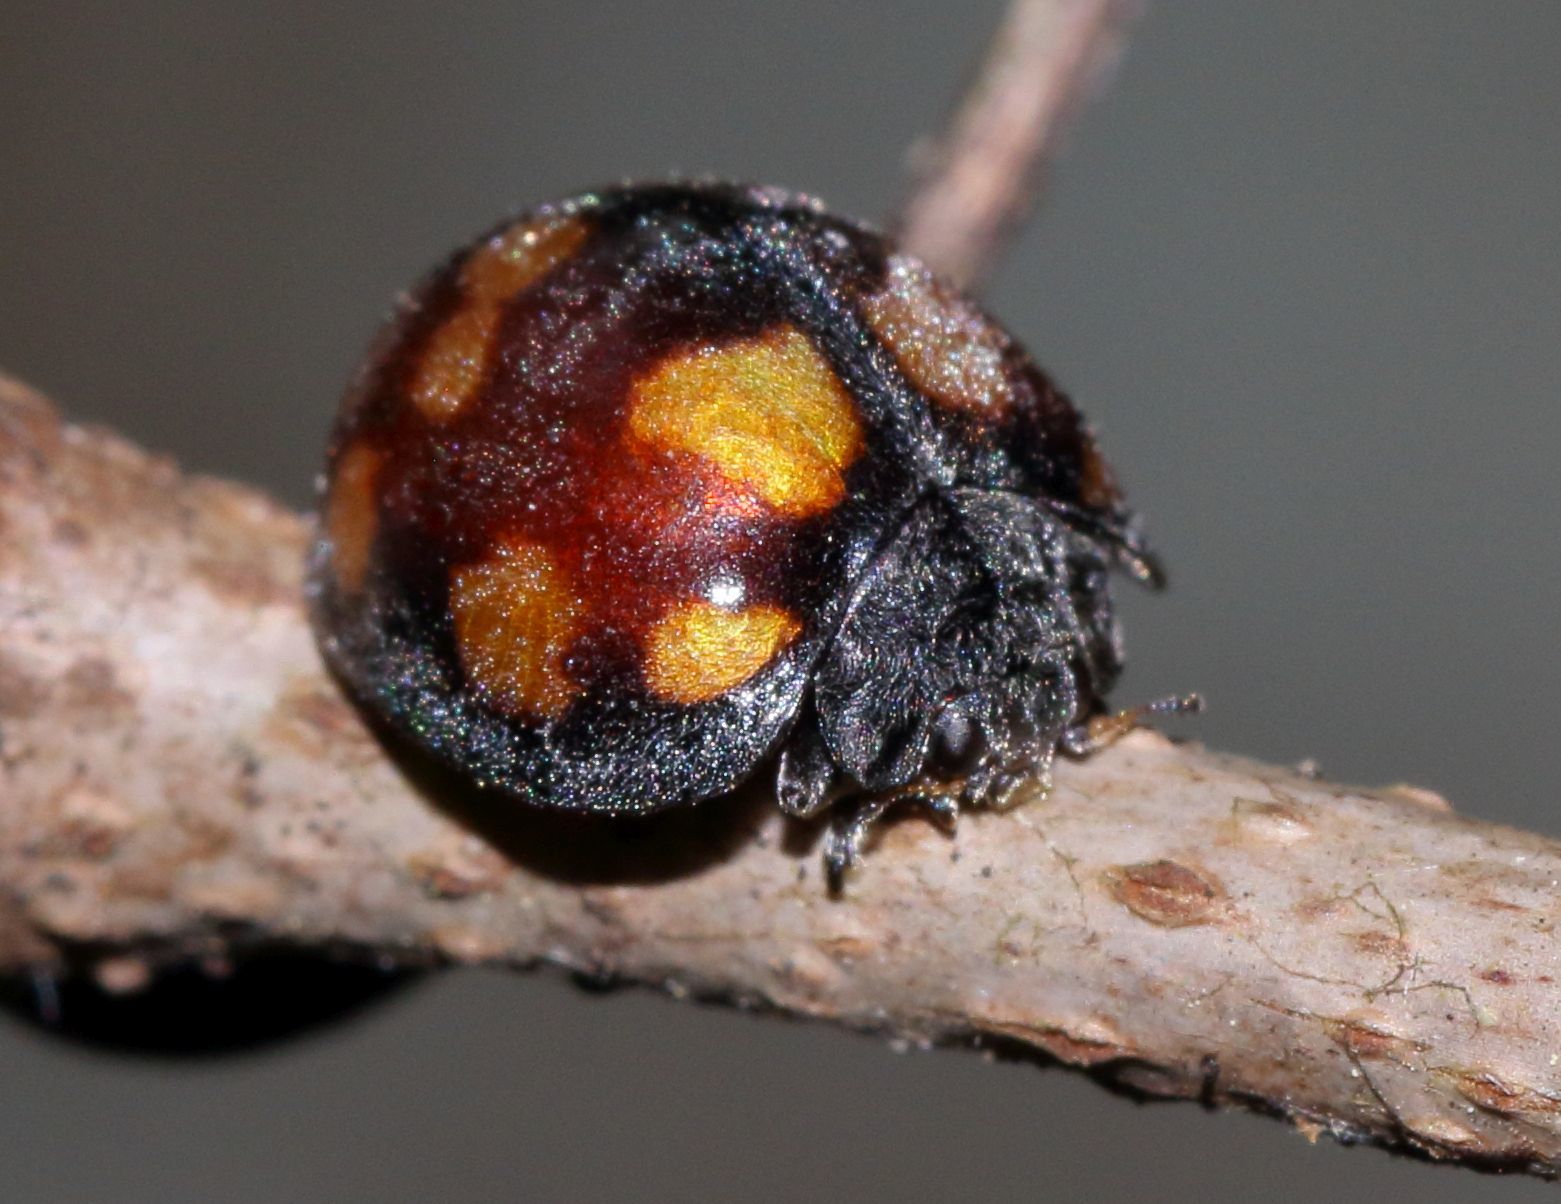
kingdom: Animalia
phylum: Arthropoda
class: Insecta
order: Coleoptera
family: Coccinellidae
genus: Chnootriba
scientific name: Chnootriba
